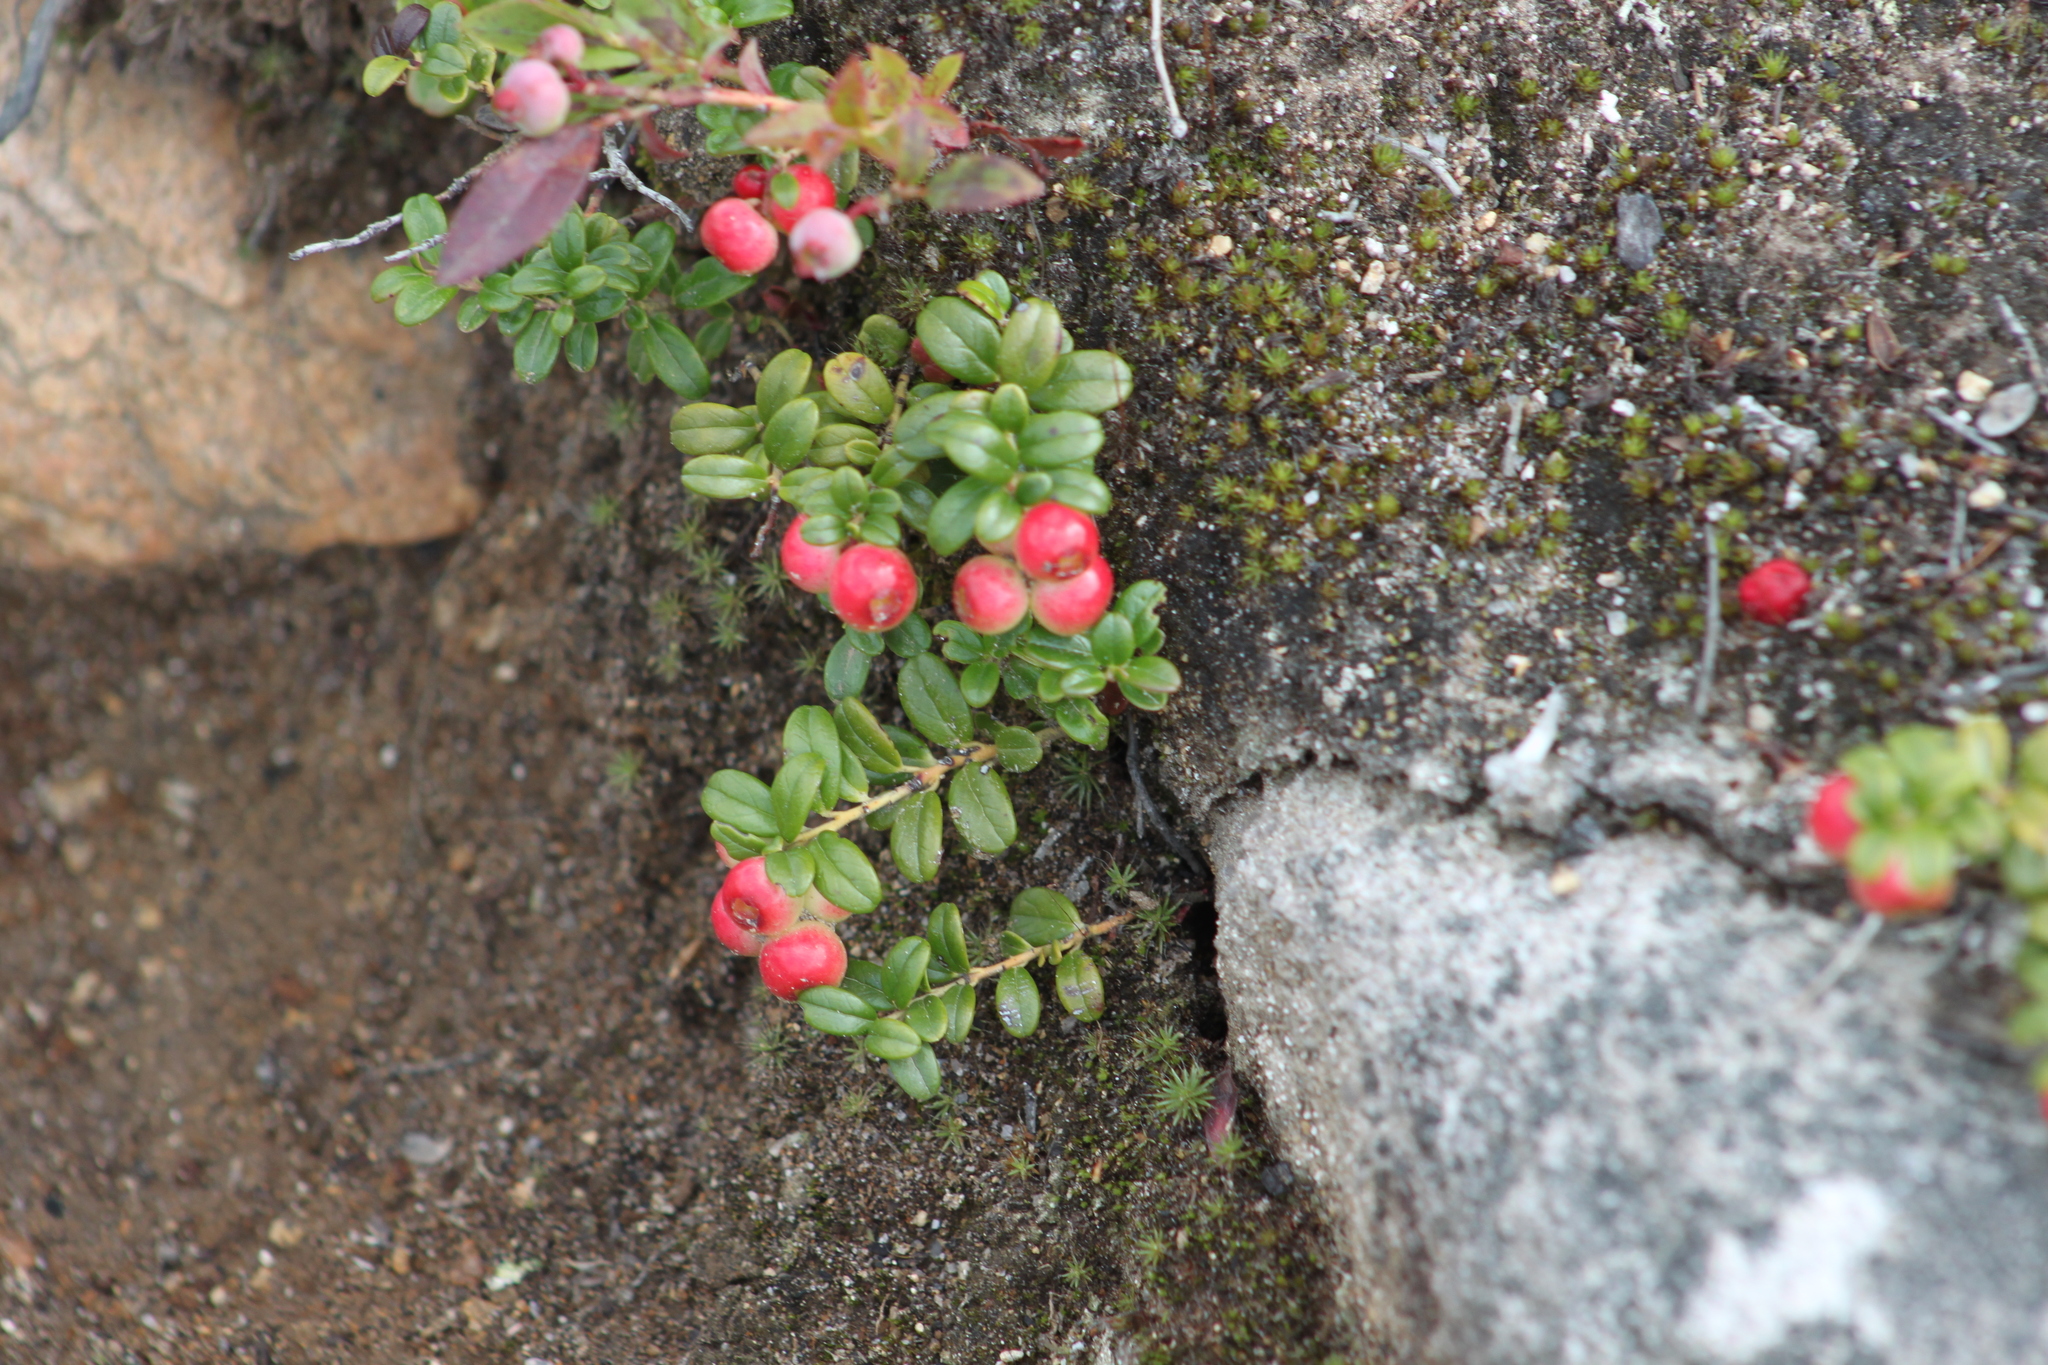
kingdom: Plantae
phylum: Tracheophyta
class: Magnoliopsida
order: Ericales
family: Ericaceae
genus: Vaccinium
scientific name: Vaccinium vitis-idaea
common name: Cowberry
